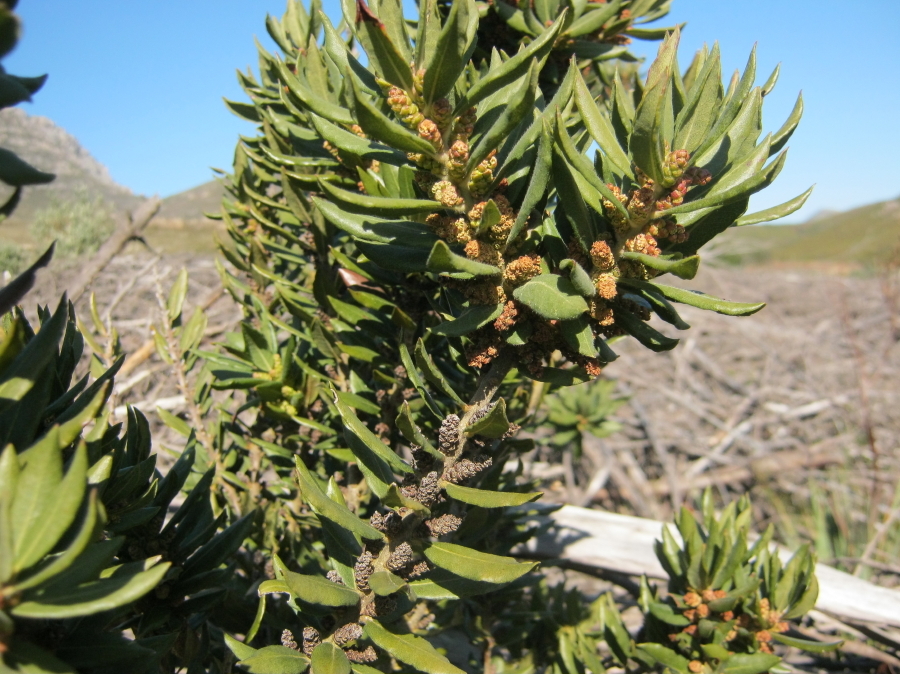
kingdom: Plantae
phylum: Tracheophyta
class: Magnoliopsida
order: Fagales
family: Myricaceae
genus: Morella
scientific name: Morella humilis
